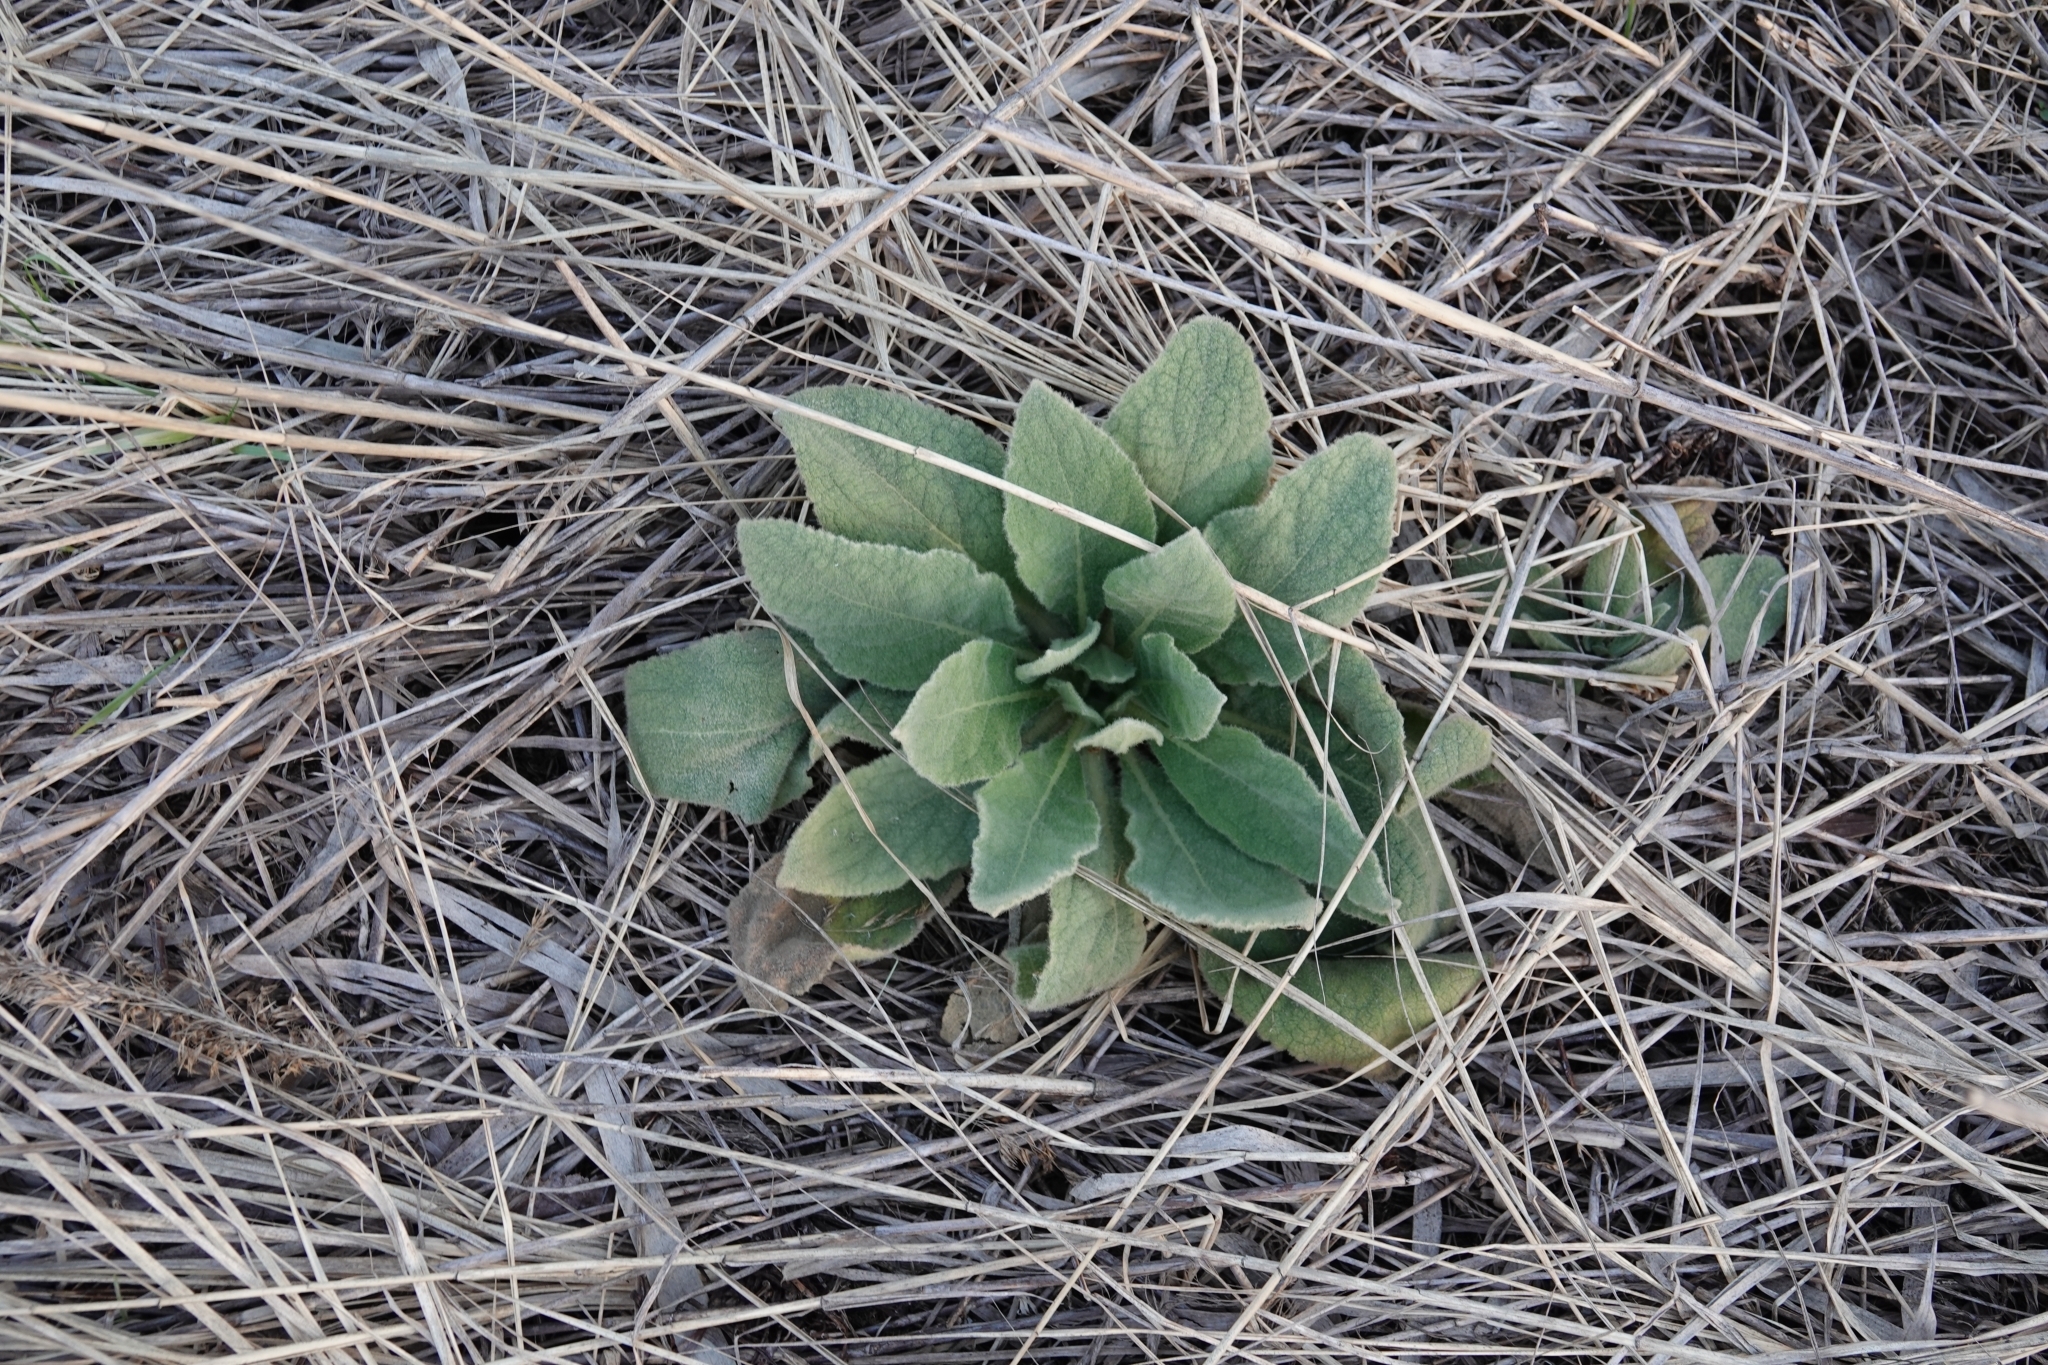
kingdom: Plantae
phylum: Tracheophyta
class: Magnoliopsida
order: Lamiales
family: Scrophulariaceae
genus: Verbascum
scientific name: Verbascum thapsus
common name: Common mullein
